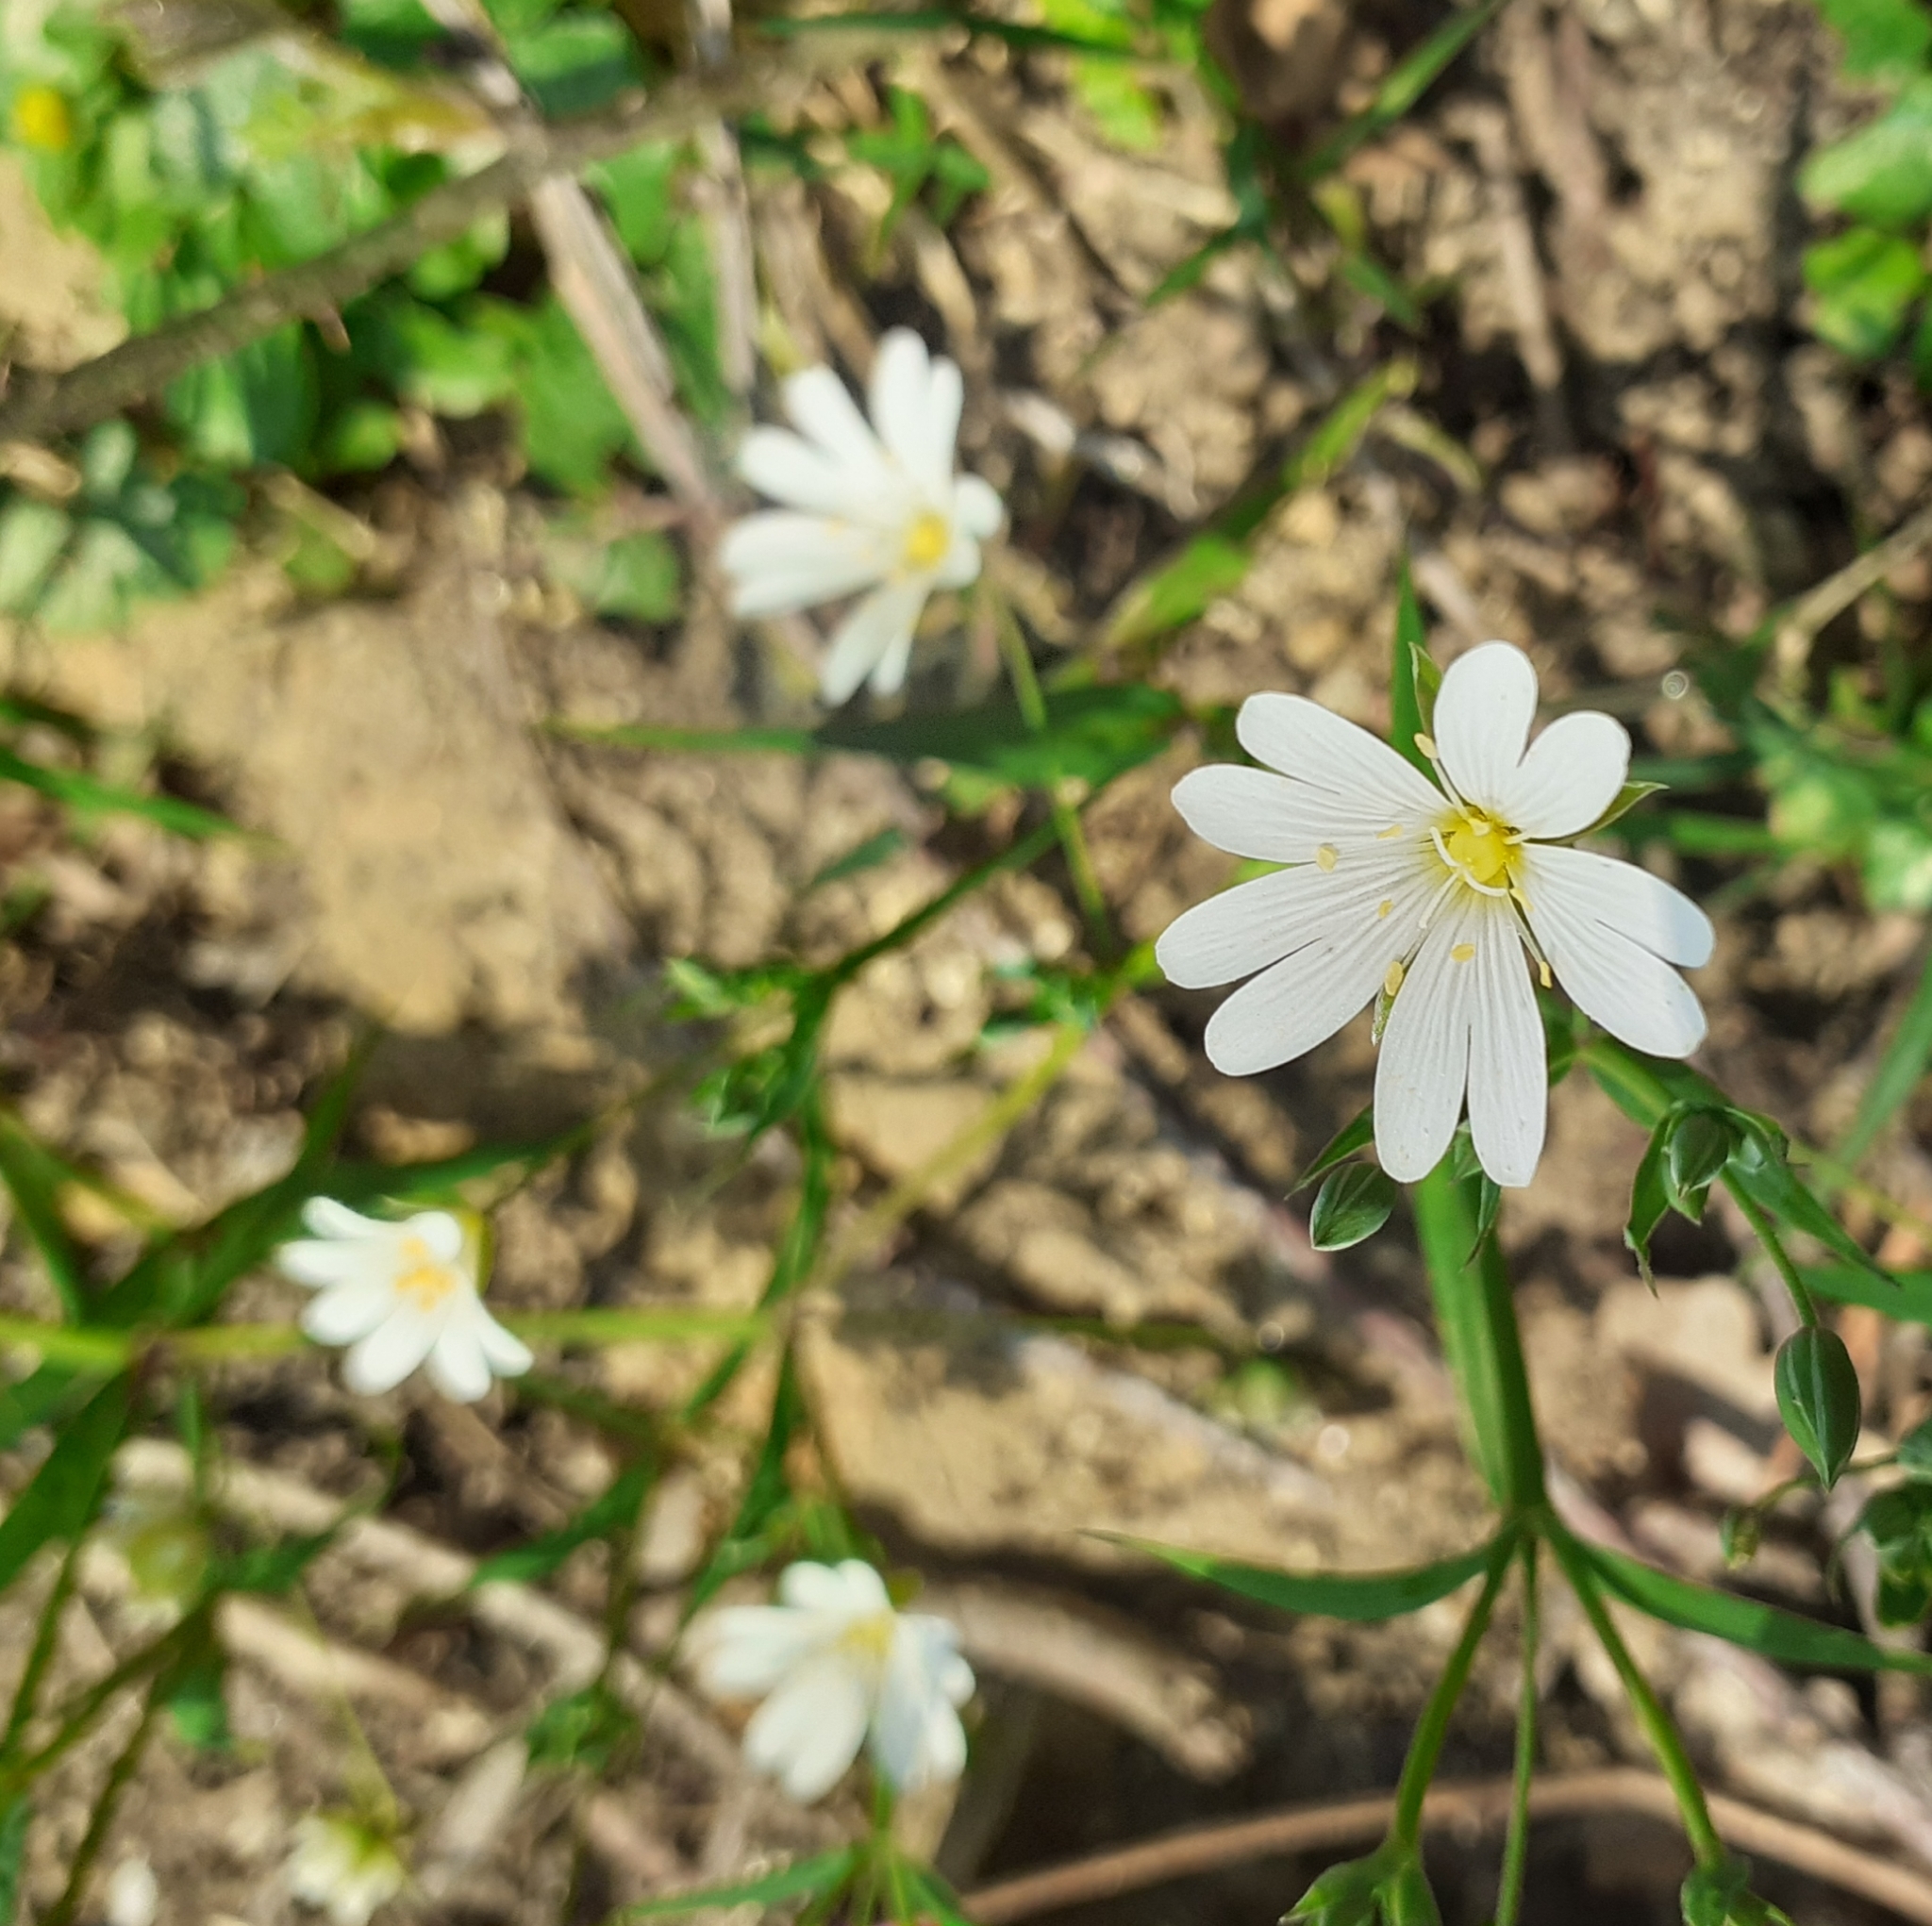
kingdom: Plantae
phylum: Tracheophyta
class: Magnoliopsida
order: Caryophyllales
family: Caryophyllaceae
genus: Rabelera
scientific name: Rabelera holostea
